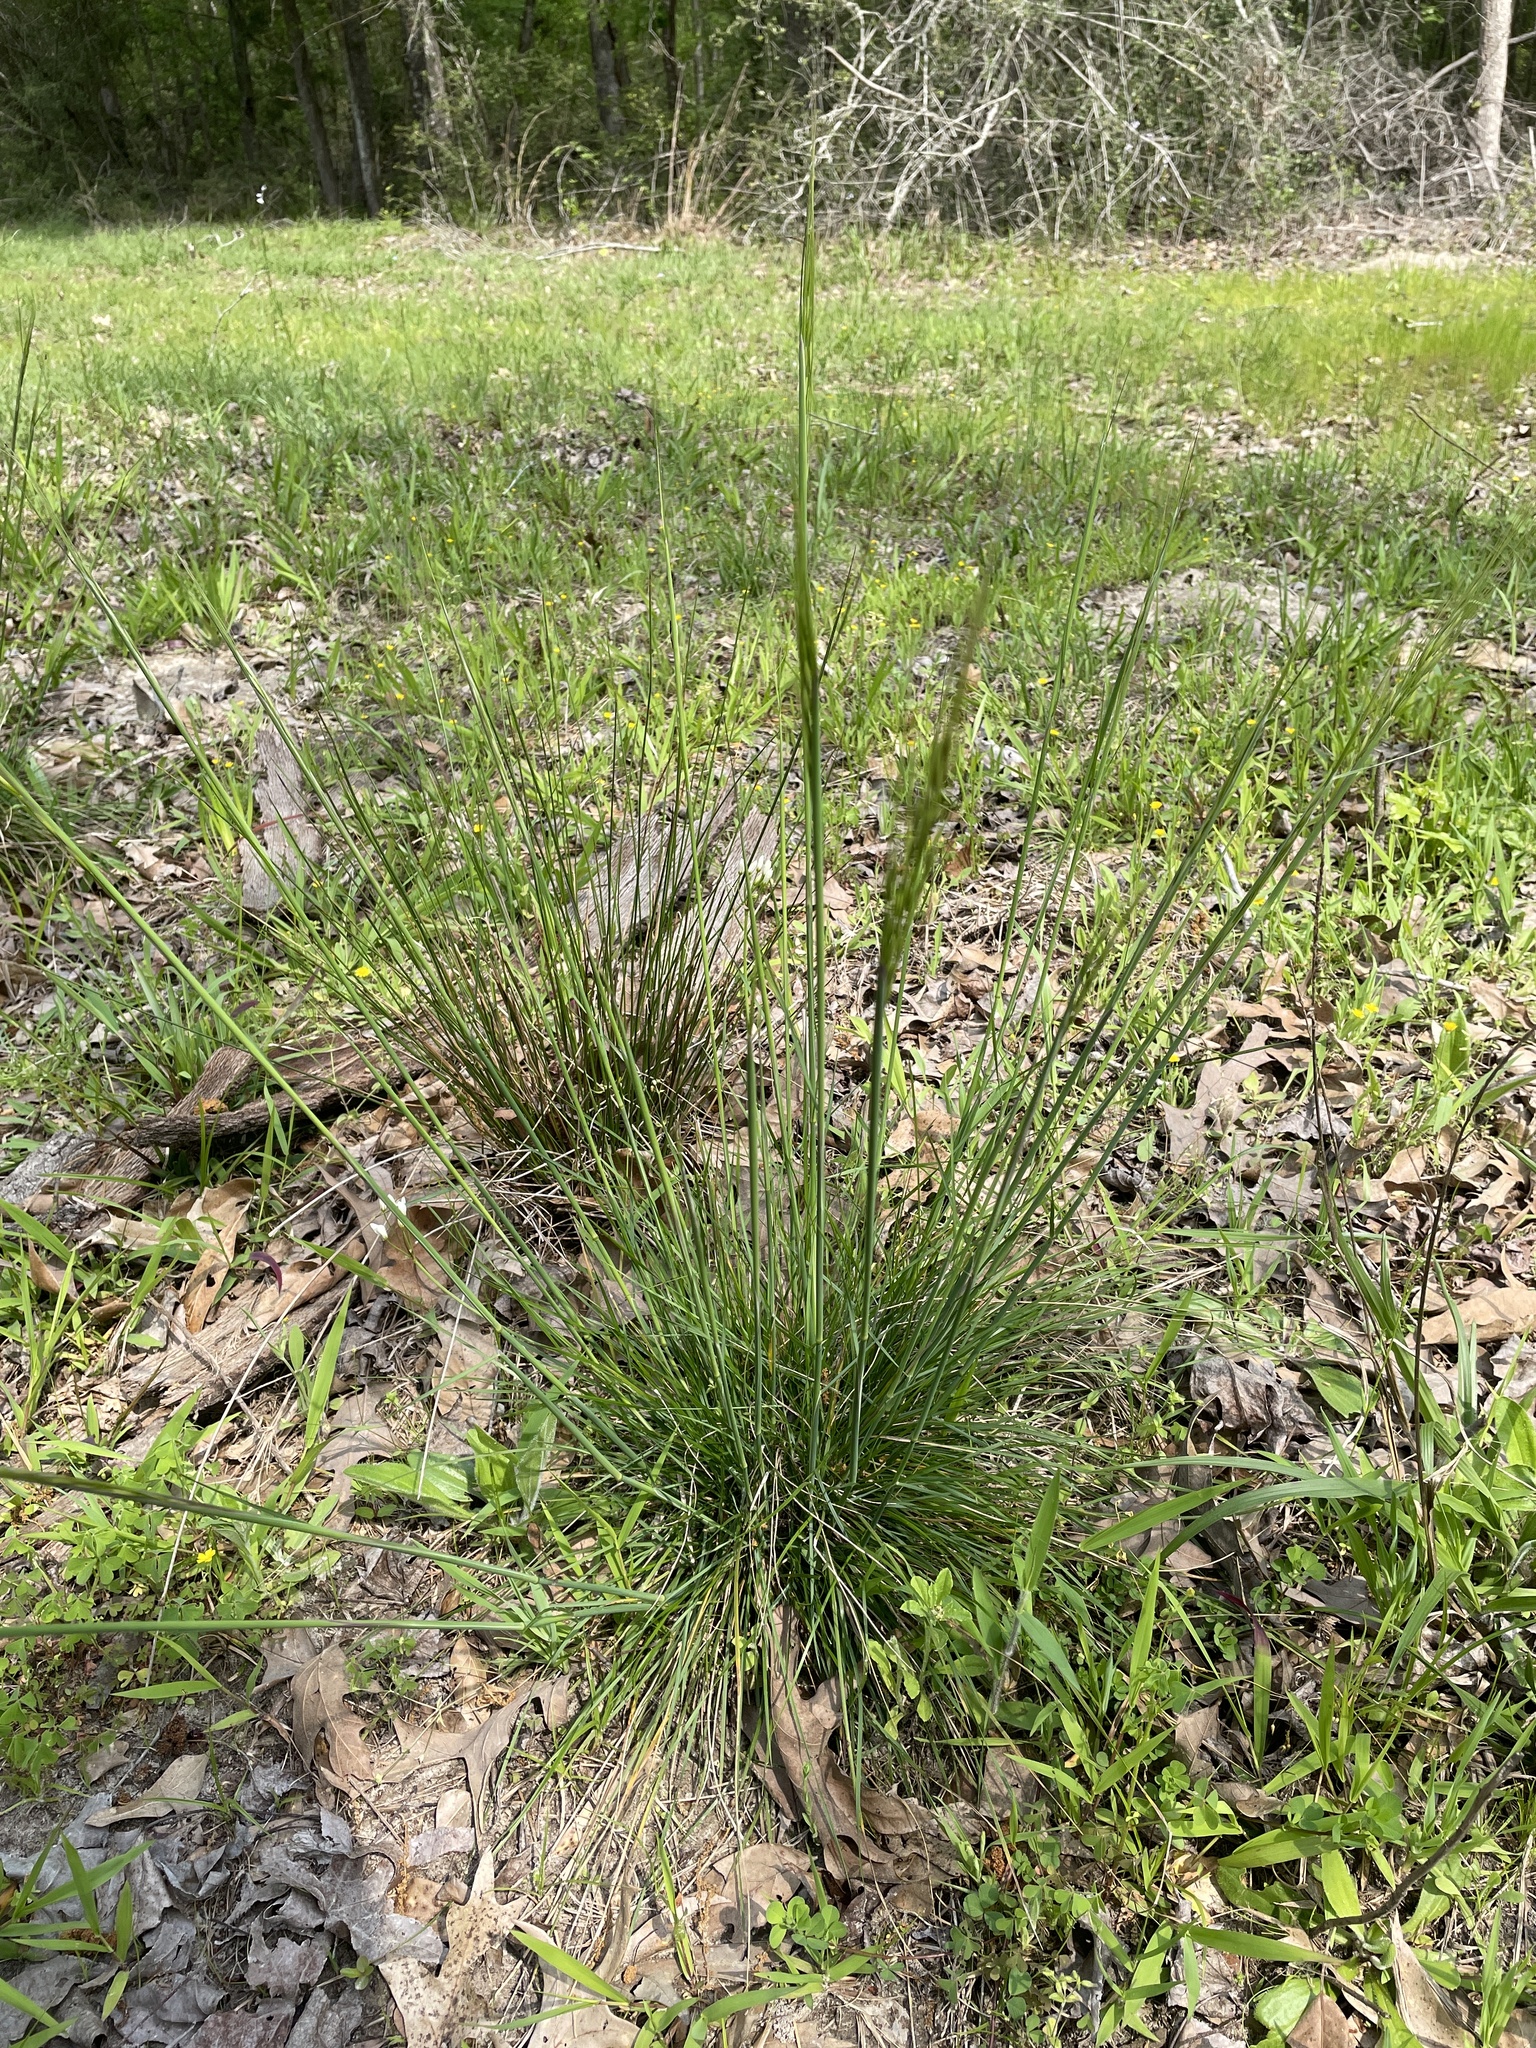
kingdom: Plantae
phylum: Tracheophyta
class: Liliopsida
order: Poales
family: Poaceae
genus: Piptochaetium
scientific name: Piptochaetium avenaceum
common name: Black bunchgrass
